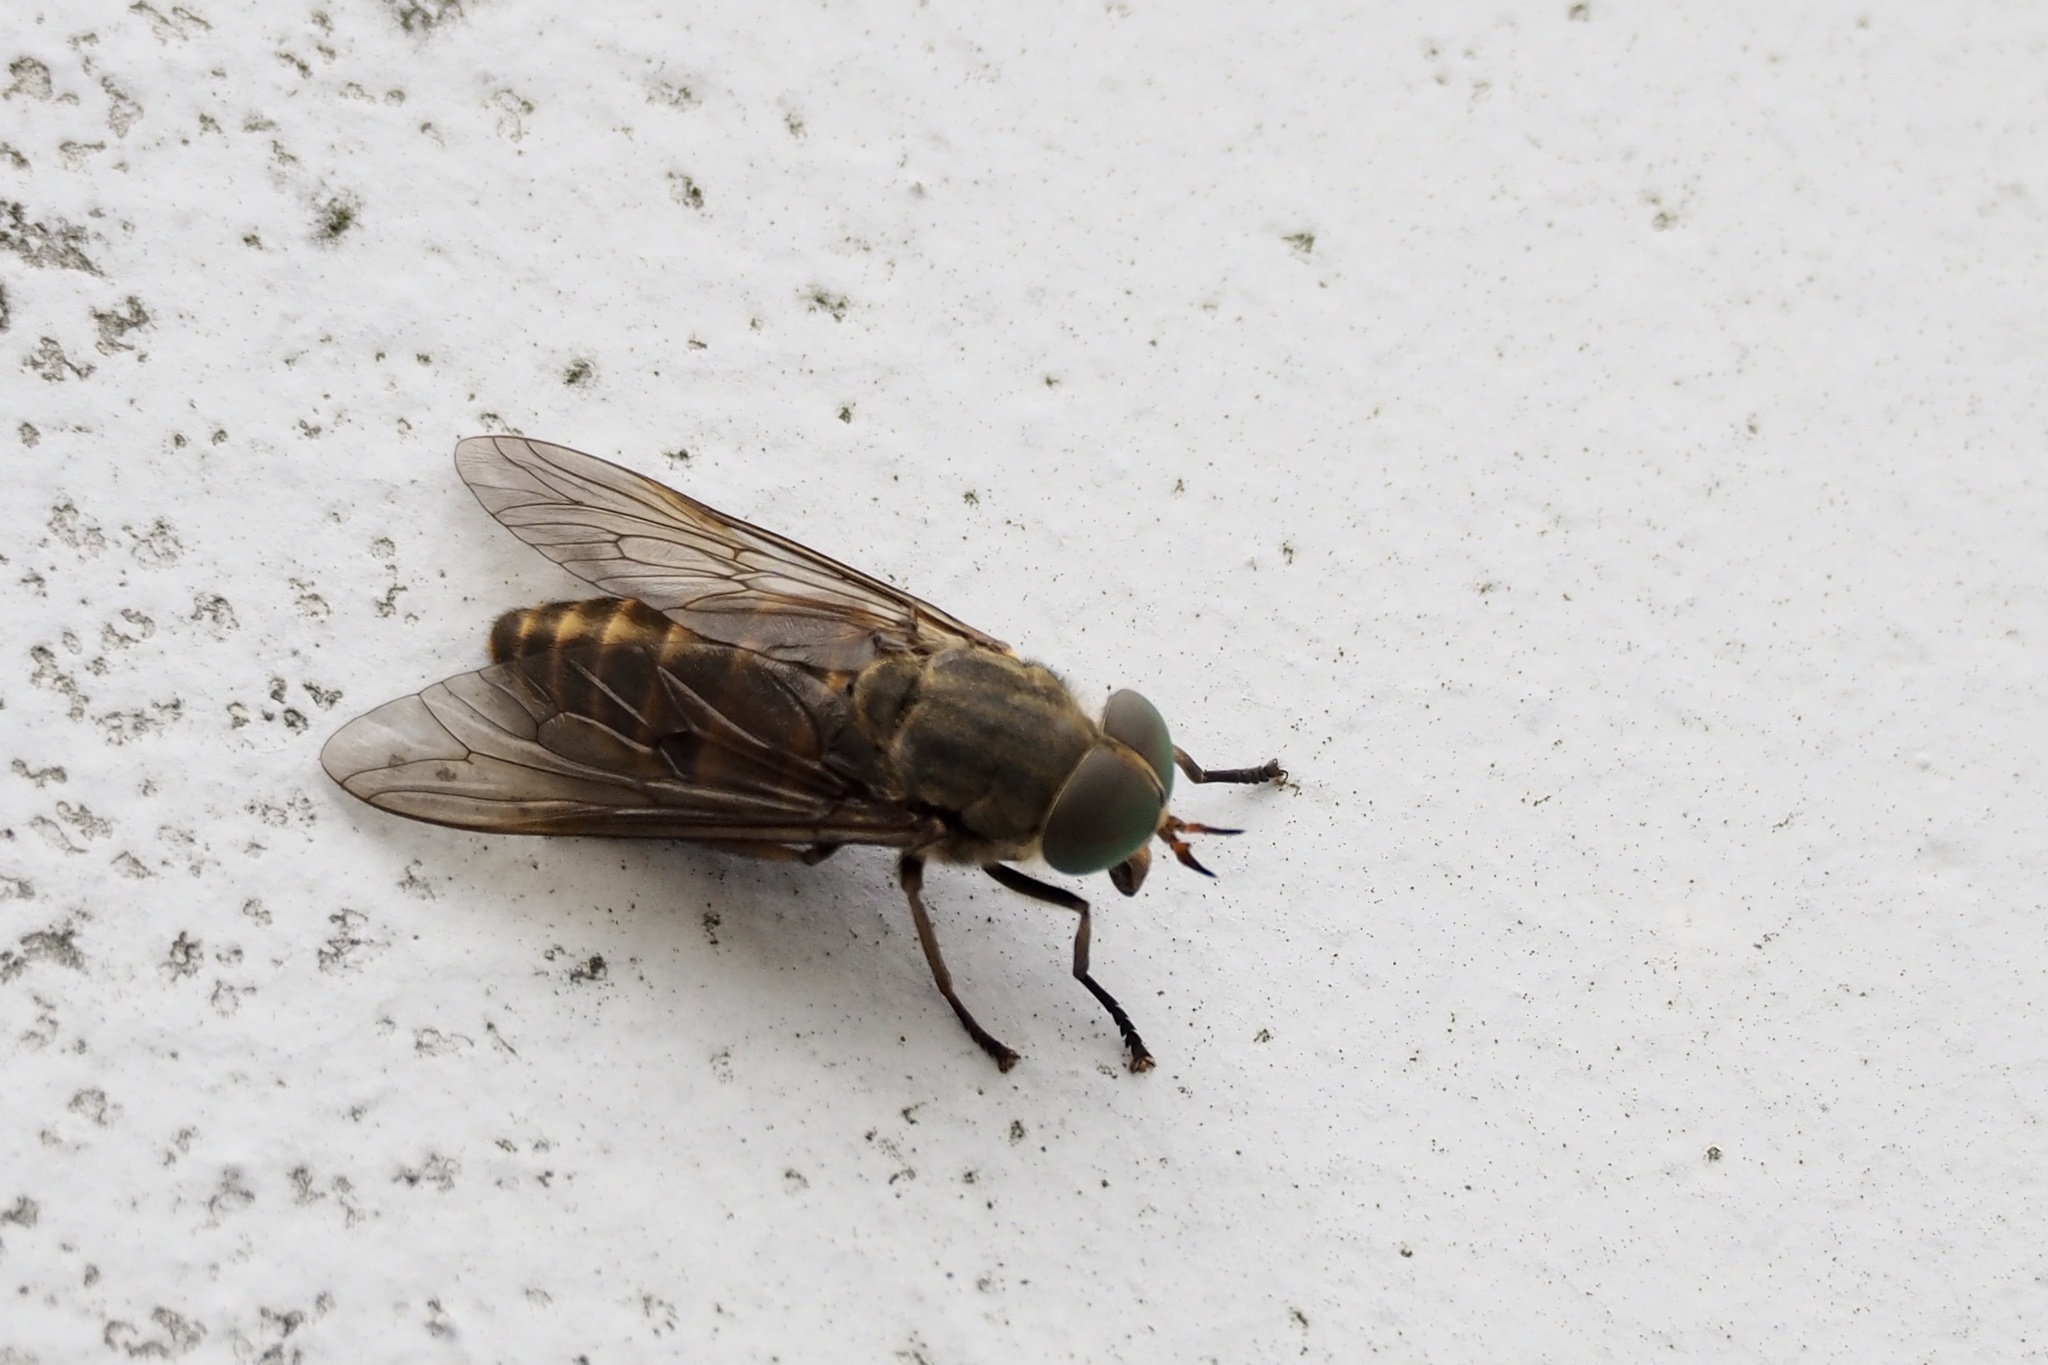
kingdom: Animalia
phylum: Arthropoda
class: Insecta
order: Diptera
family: Tabanidae
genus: Tabanus
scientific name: Tabanus trigonus
